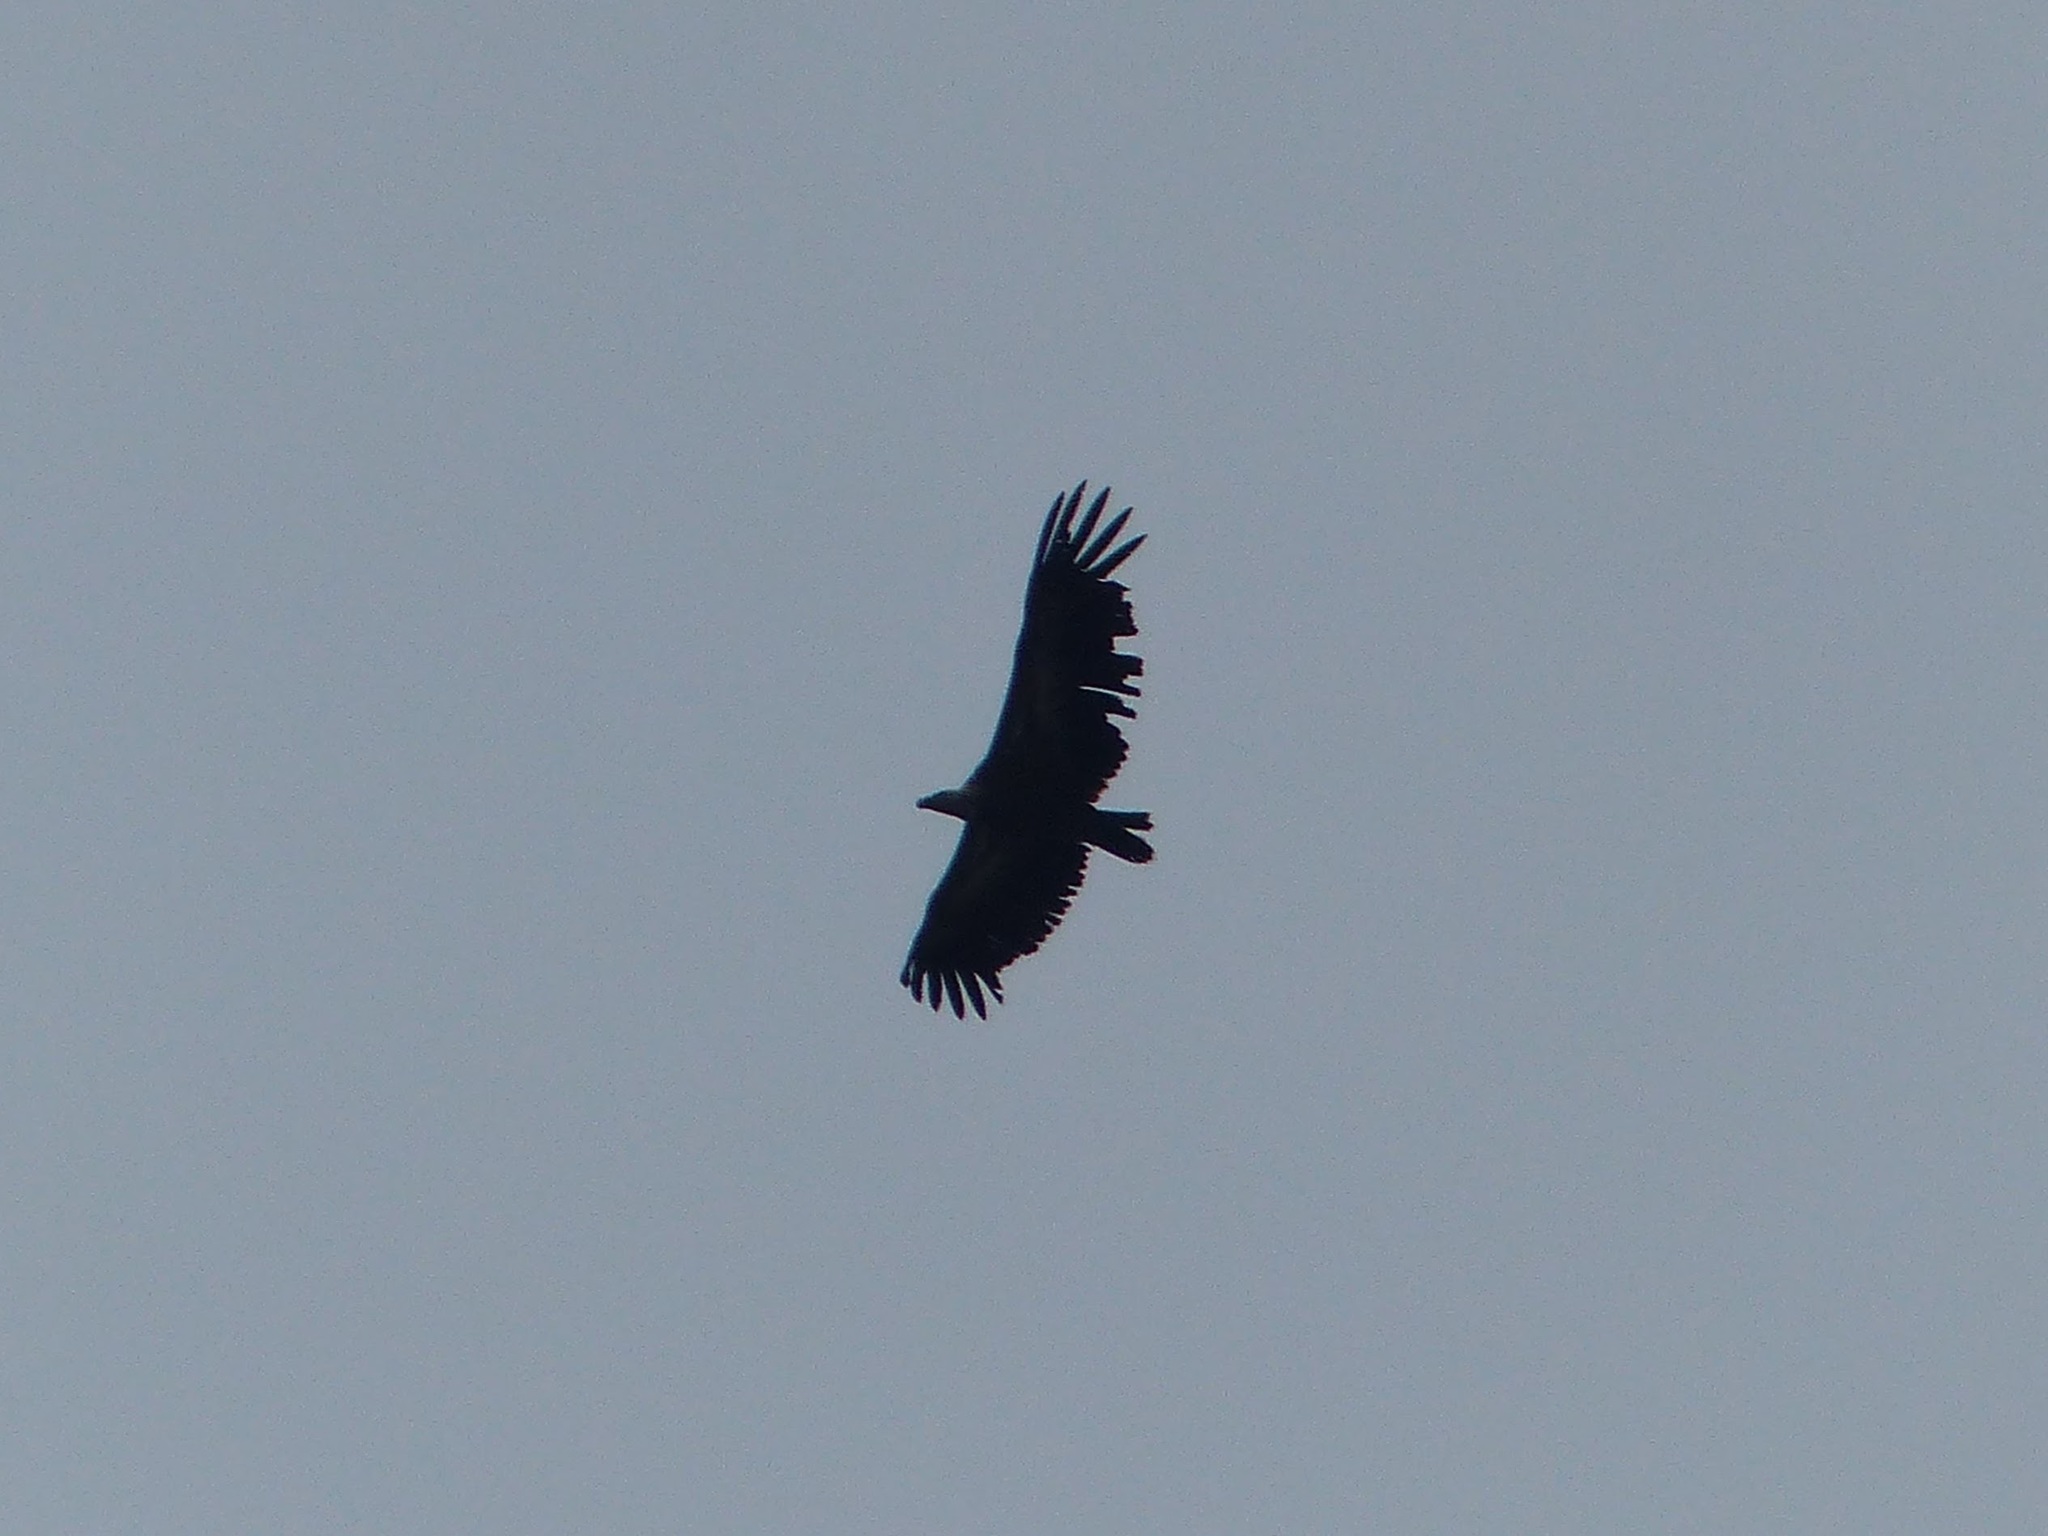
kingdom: Animalia
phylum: Chordata
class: Aves
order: Accipitriformes
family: Accipitridae
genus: Gyps
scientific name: Gyps fulvus
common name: Griffon vulture
